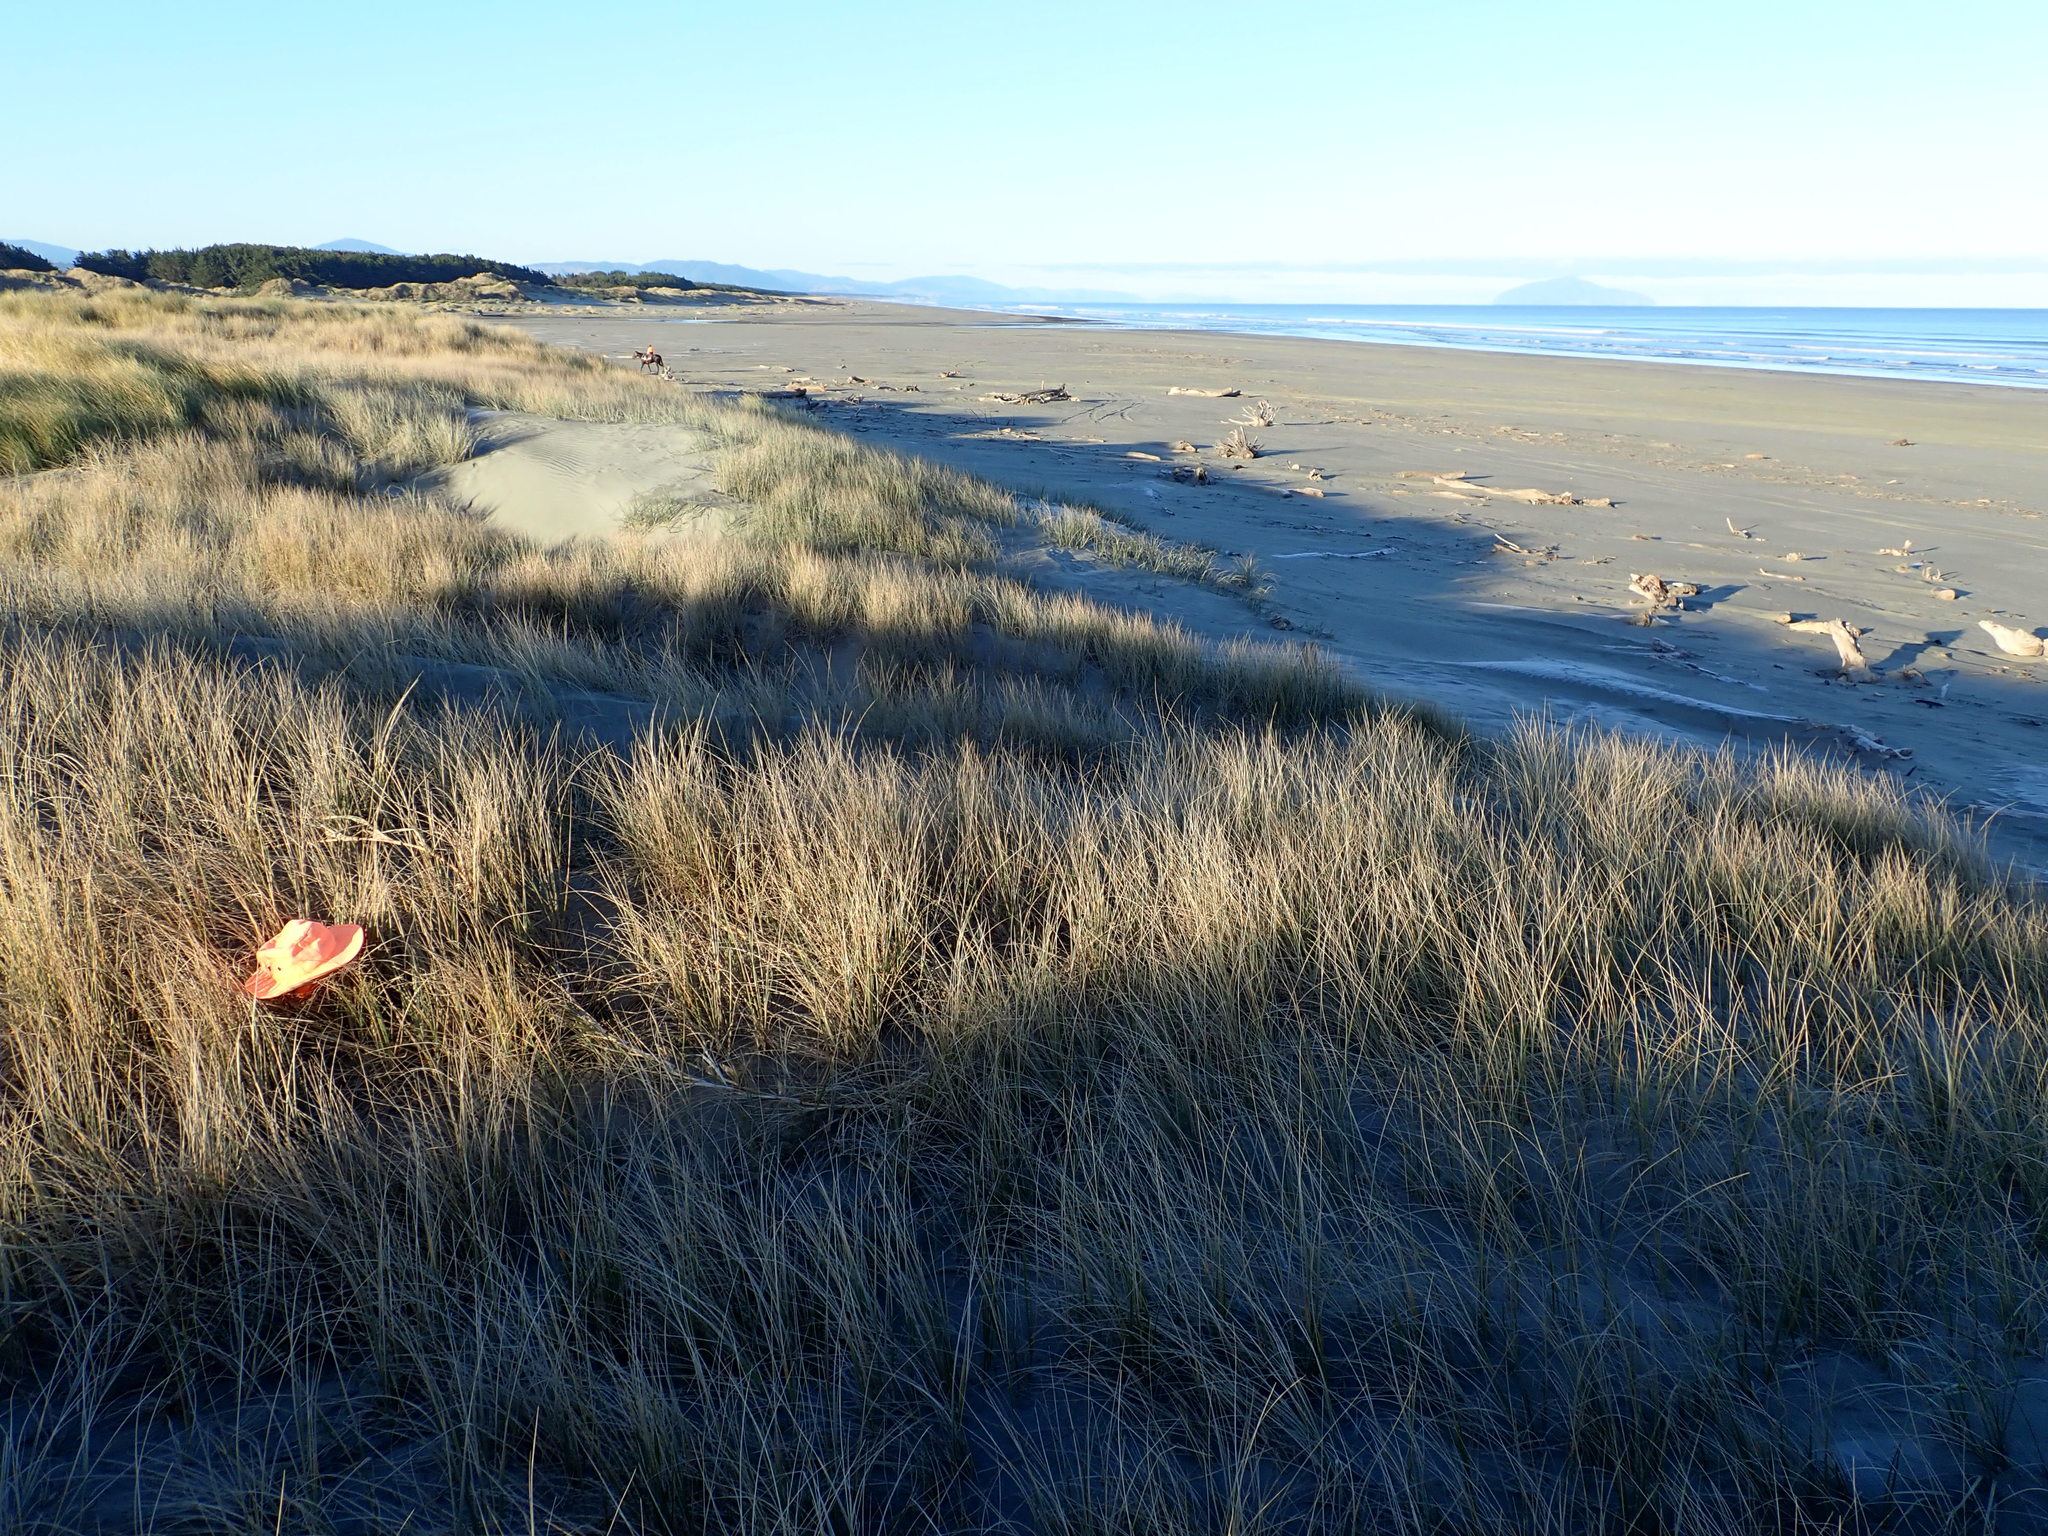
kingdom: Animalia
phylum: Arthropoda
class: Arachnida
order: Araneae
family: Theridiidae
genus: Latrodectus
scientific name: Latrodectus katipo
